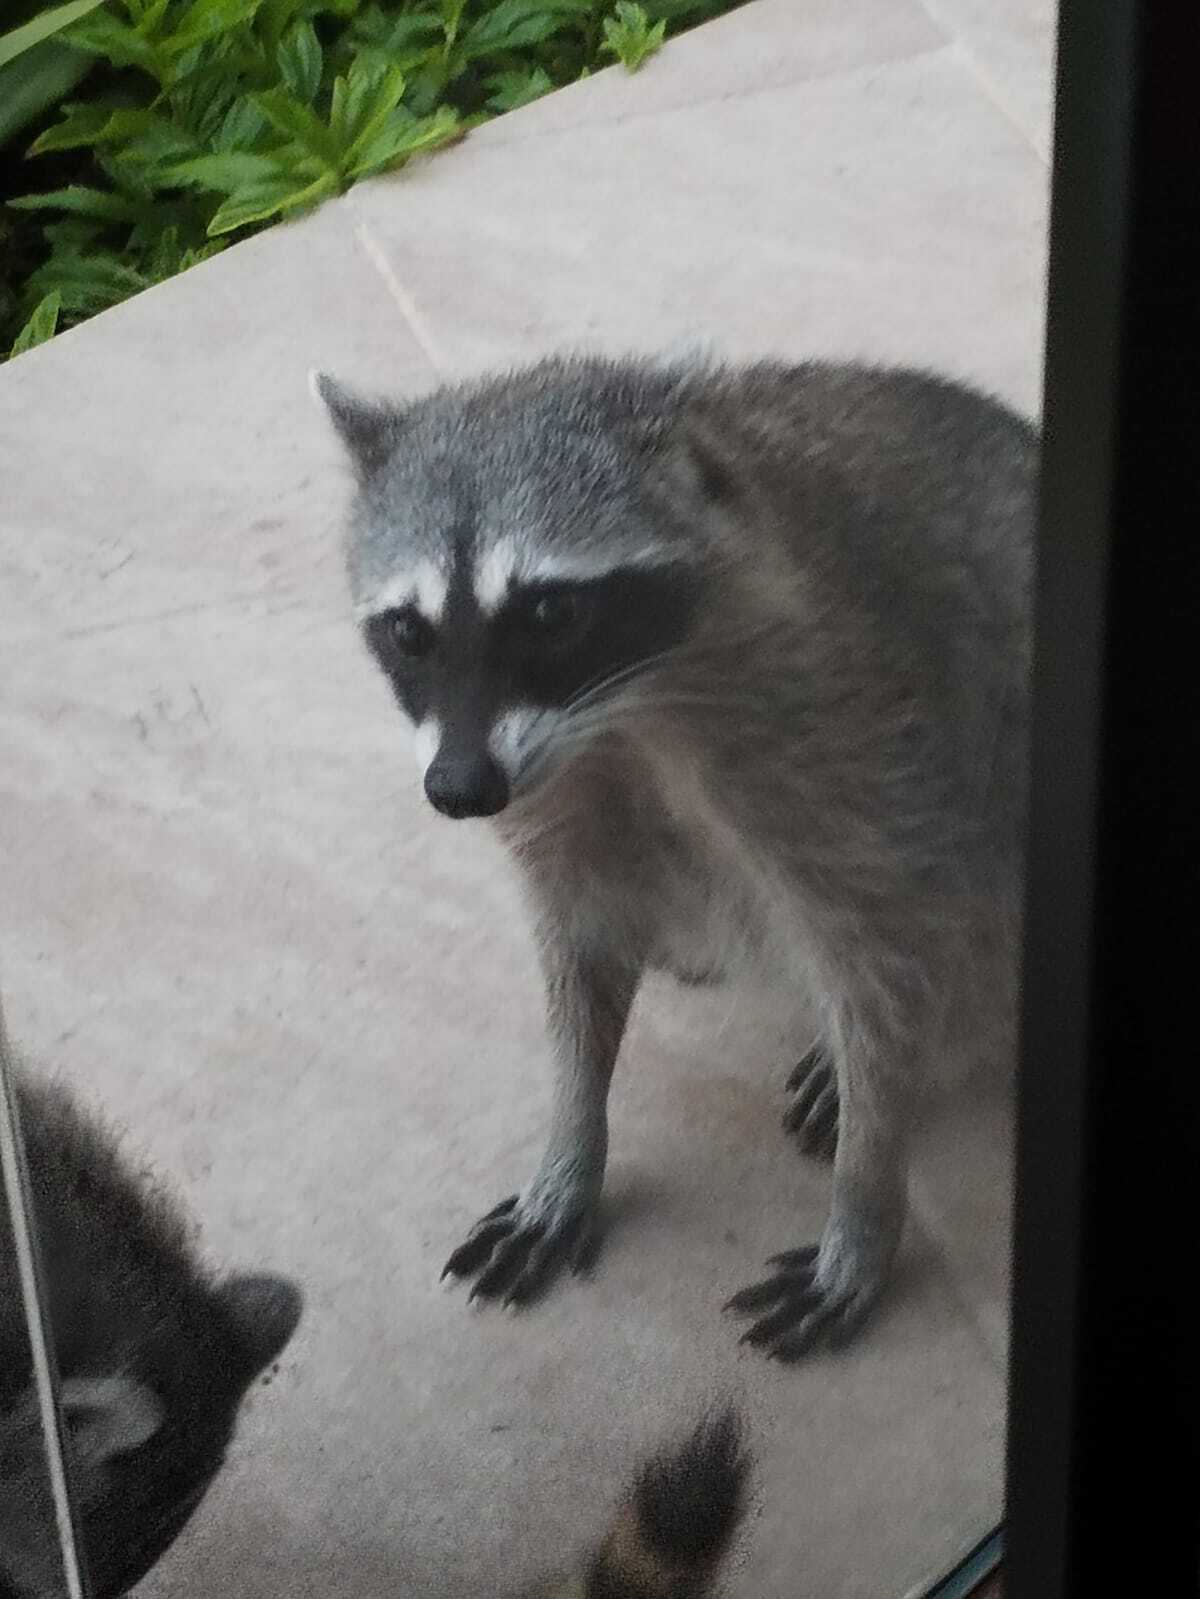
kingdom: Animalia
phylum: Chordata
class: Mammalia
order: Carnivora
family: Procyonidae
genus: Procyon
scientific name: Procyon lotor
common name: Raccoon
